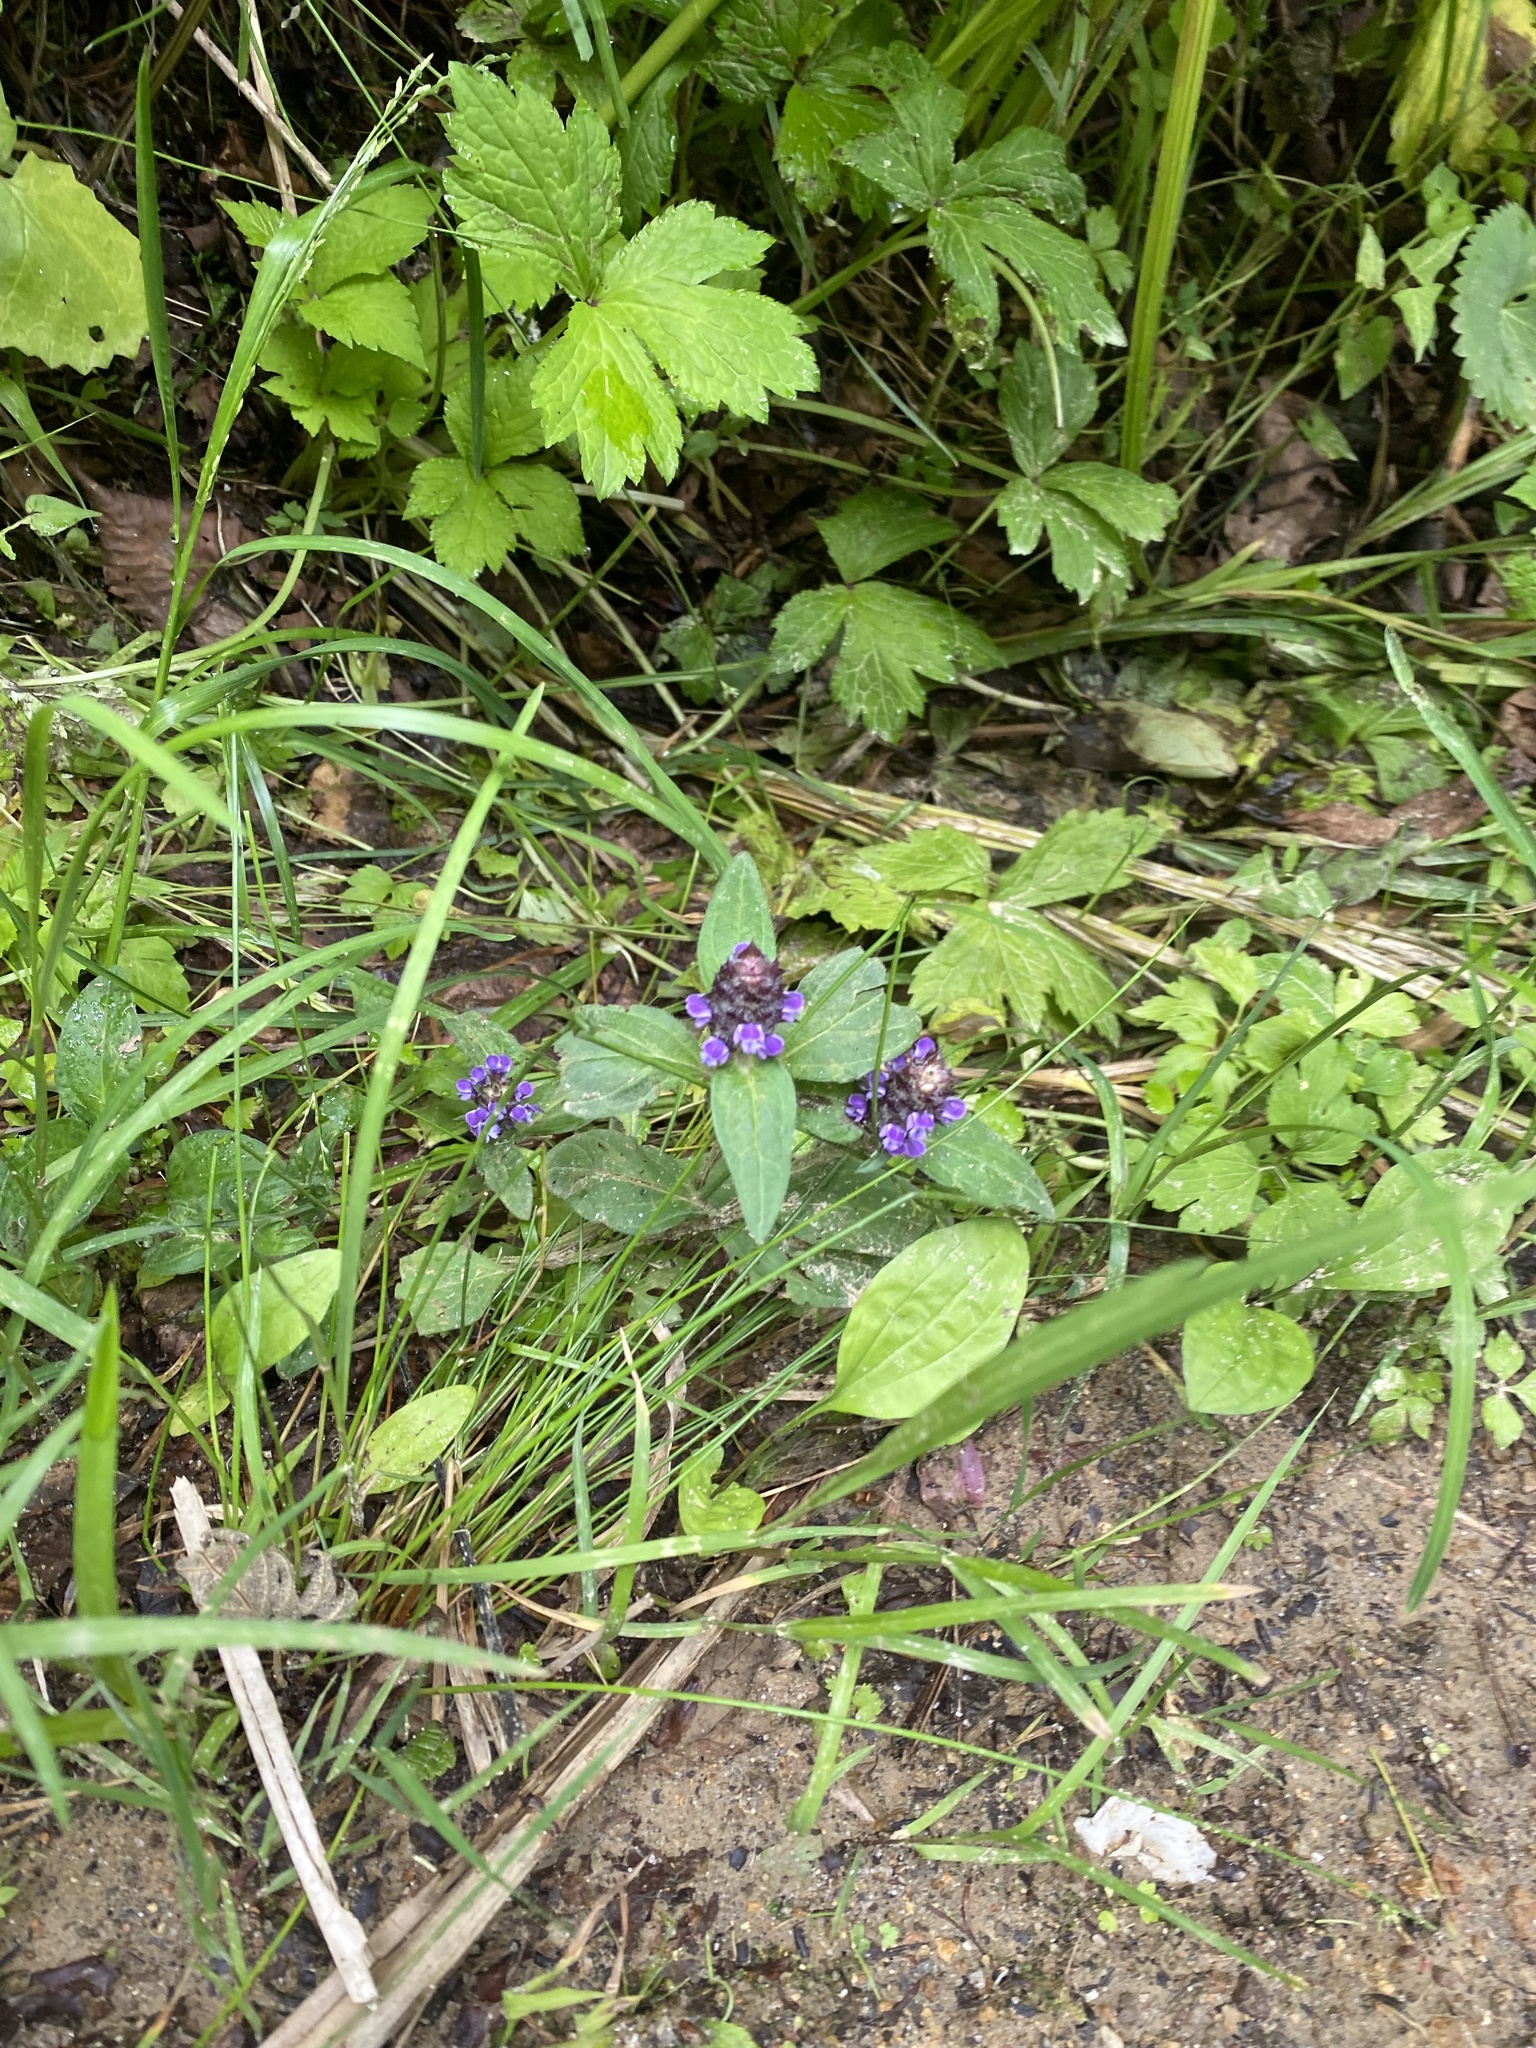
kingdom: Plantae
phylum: Tracheophyta
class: Magnoliopsida
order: Lamiales
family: Lamiaceae
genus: Prunella
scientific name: Prunella vulgaris
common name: Heal-all
